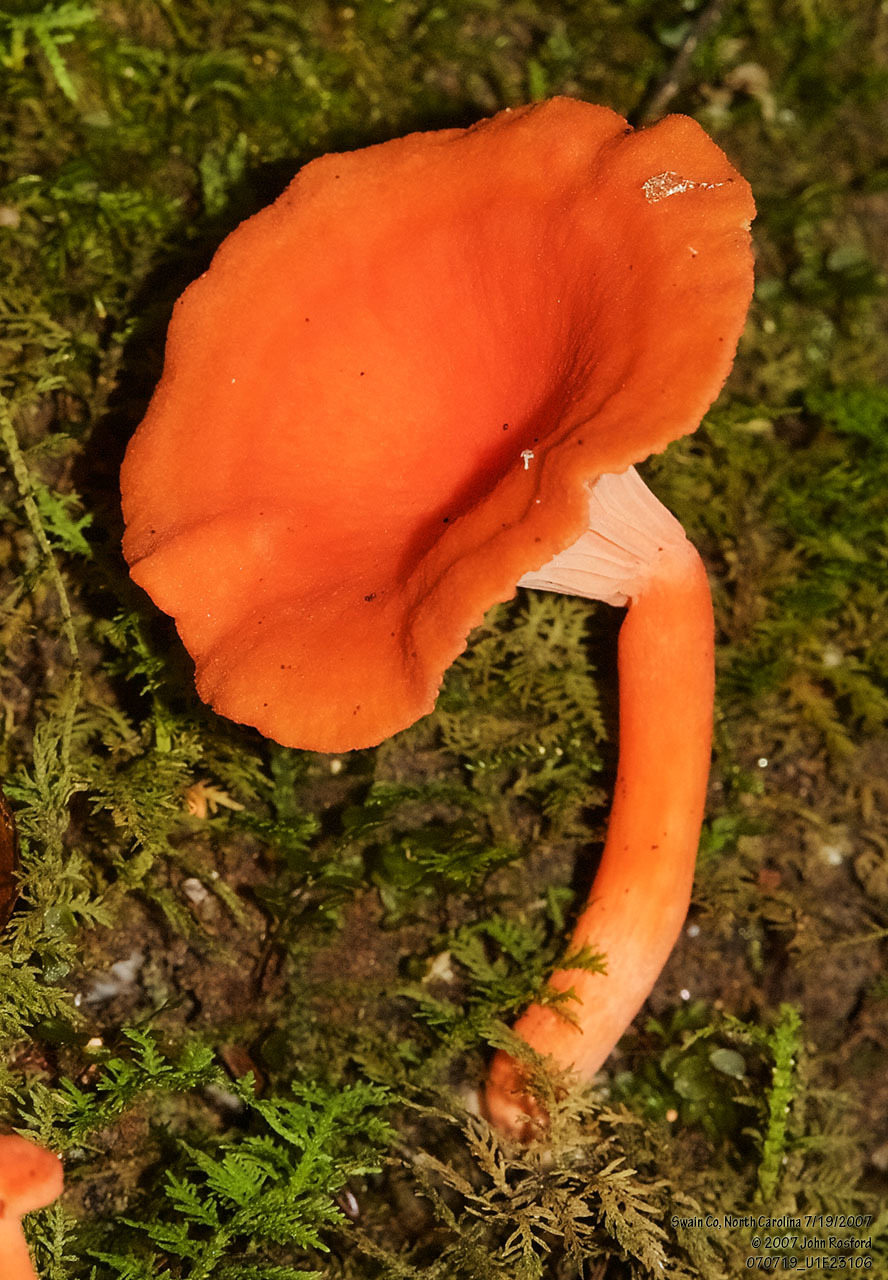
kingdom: Fungi
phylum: Basidiomycota
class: Agaricomycetes
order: Cantharellales
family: Hydnaceae
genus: Cantharellus
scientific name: Cantharellus cinnabarinus
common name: Cinnabar chanterelle
